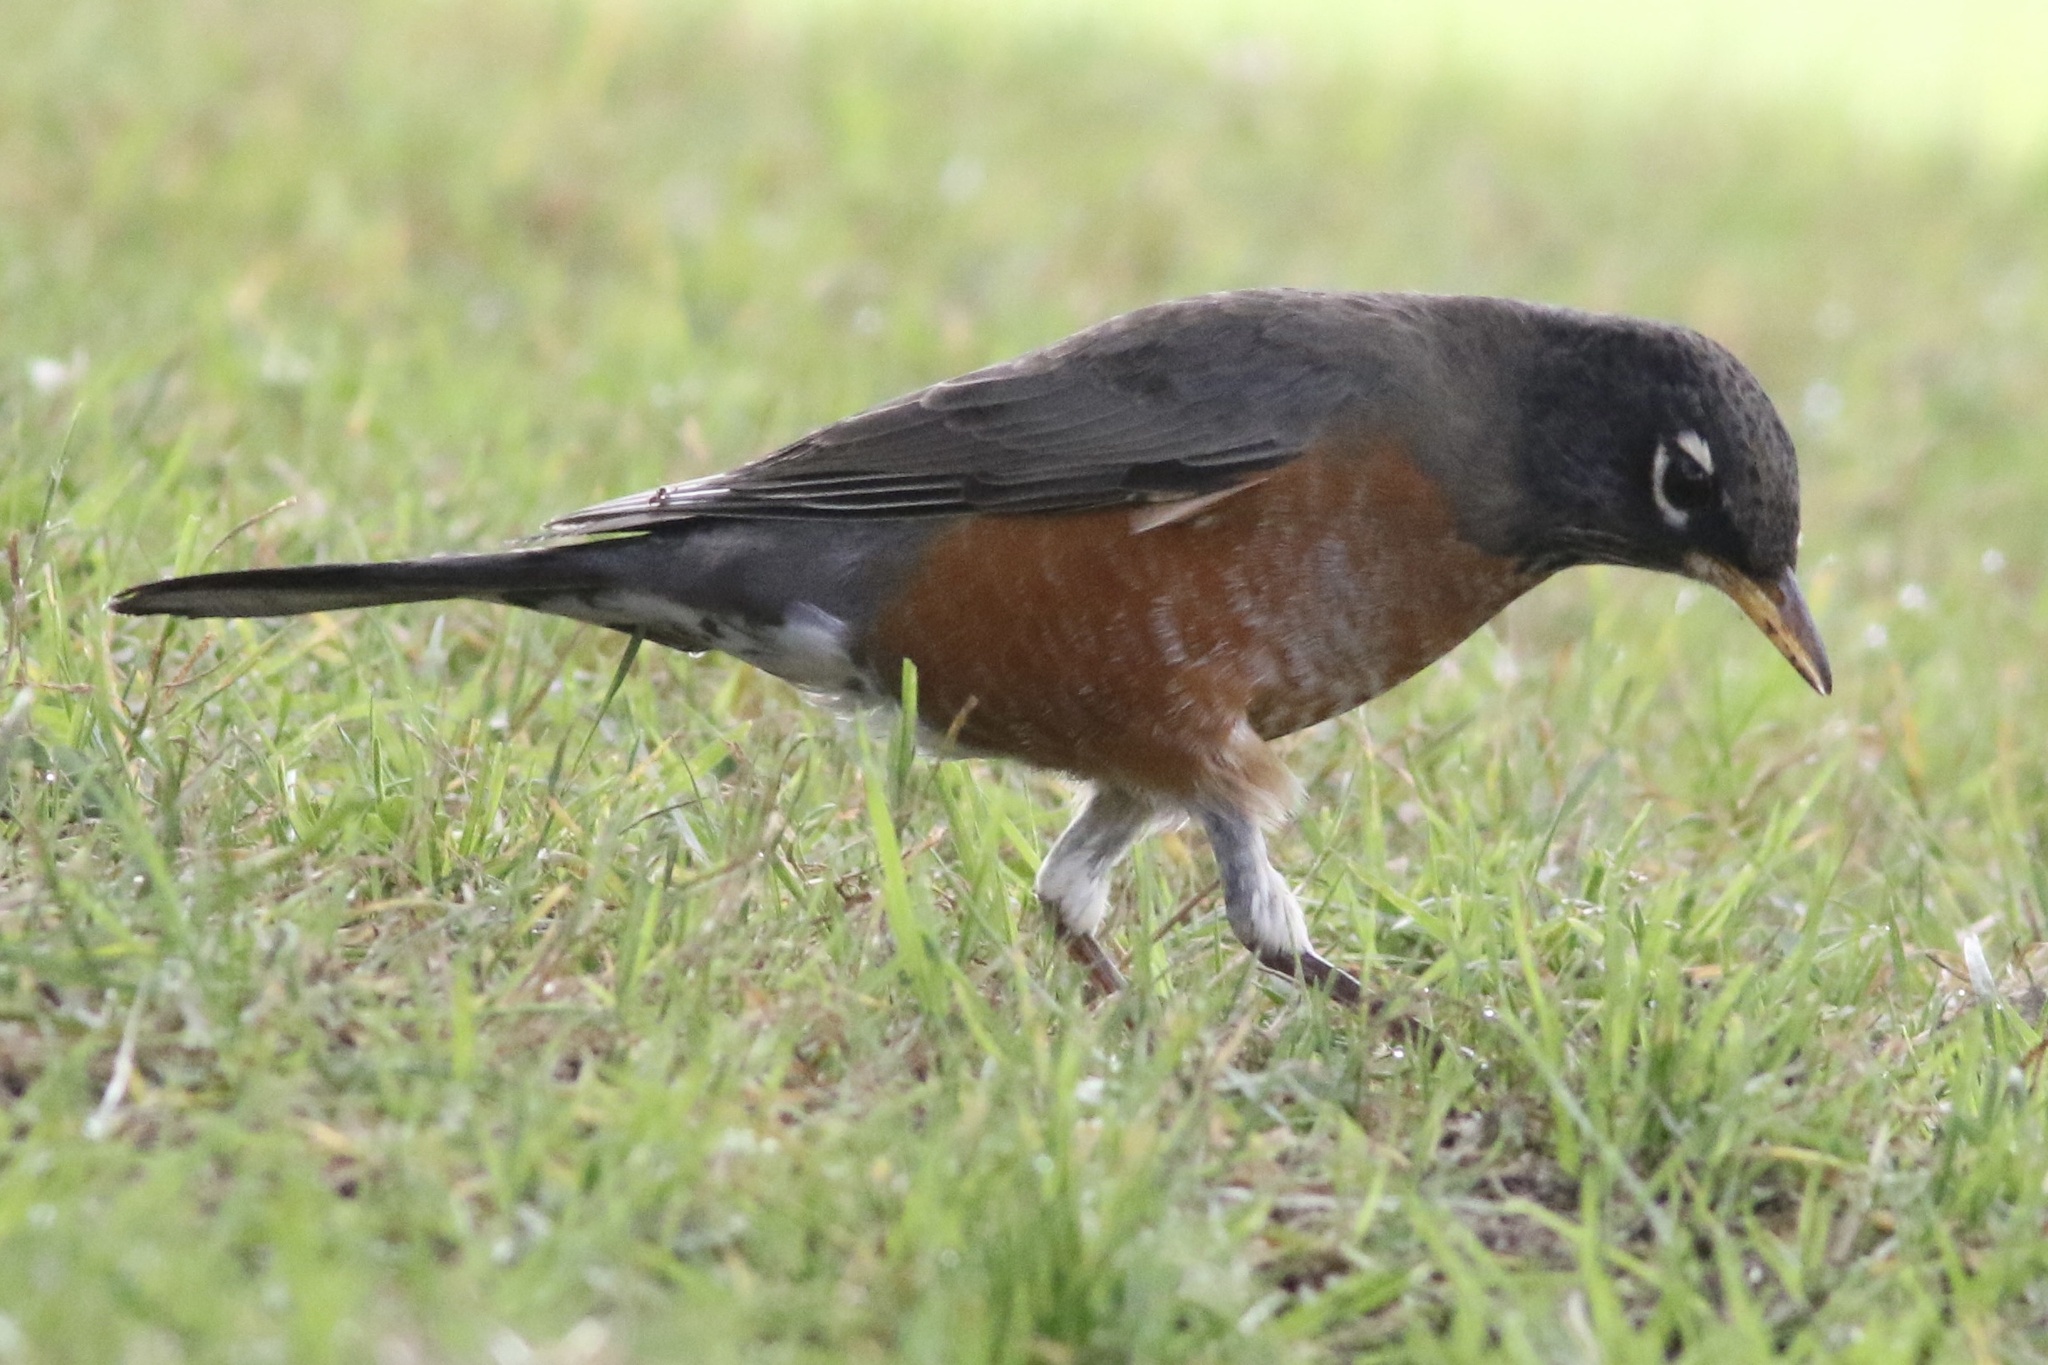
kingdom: Animalia
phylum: Chordata
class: Aves
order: Passeriformes
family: Turdidae
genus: Turdus
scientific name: Turdus migratorius
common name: American robin
